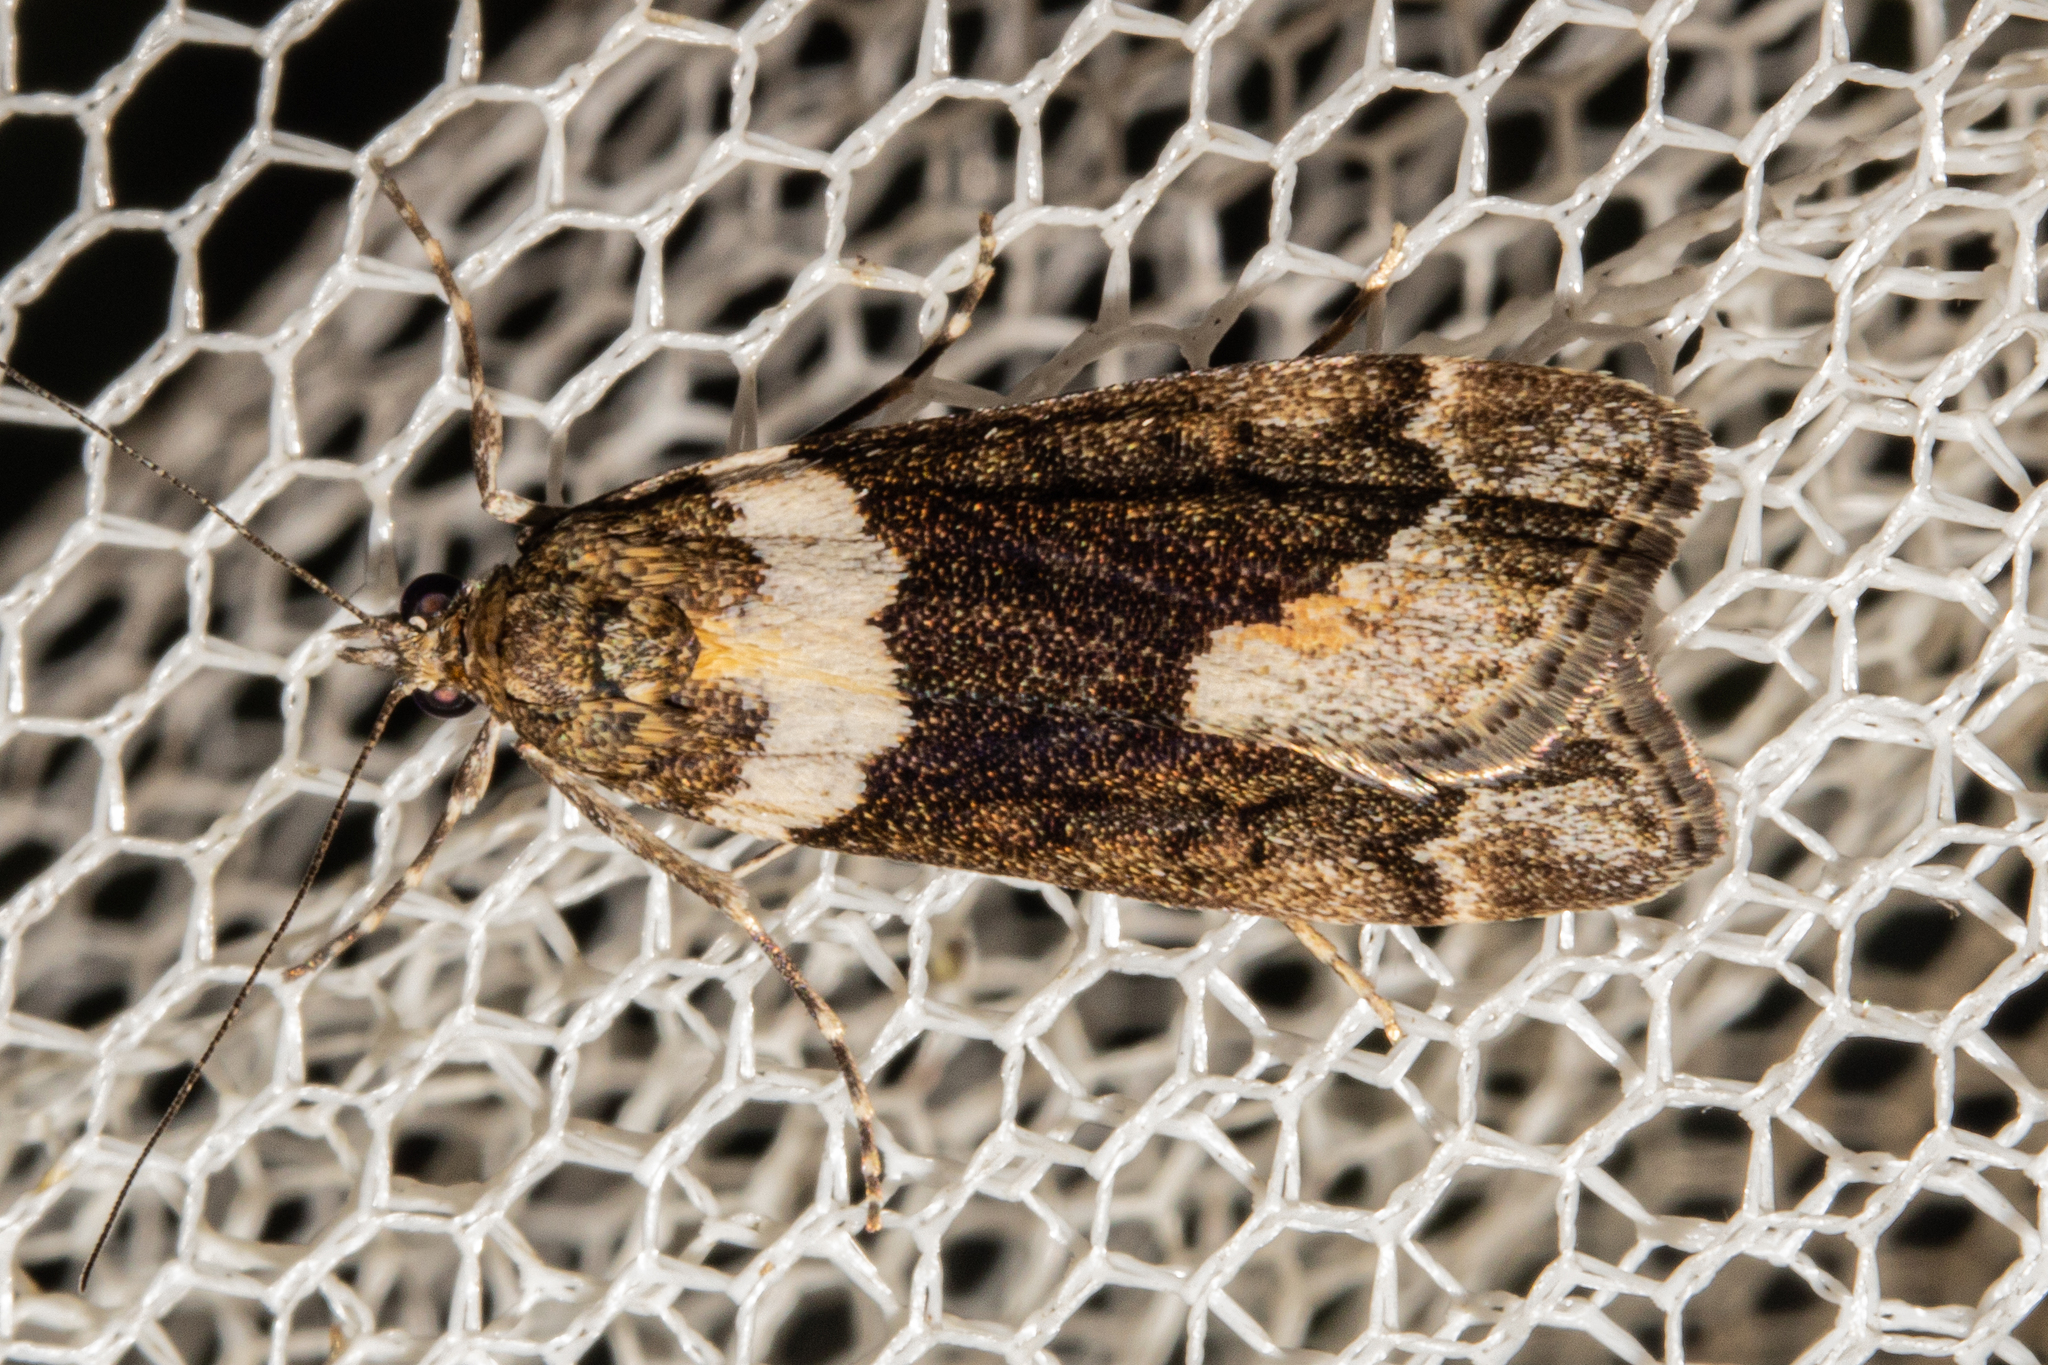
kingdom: Animalia
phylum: Arthropoda
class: Insecta
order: Lepidoptera
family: Crambidae
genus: Eudonia
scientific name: Eudonia submarginalis
